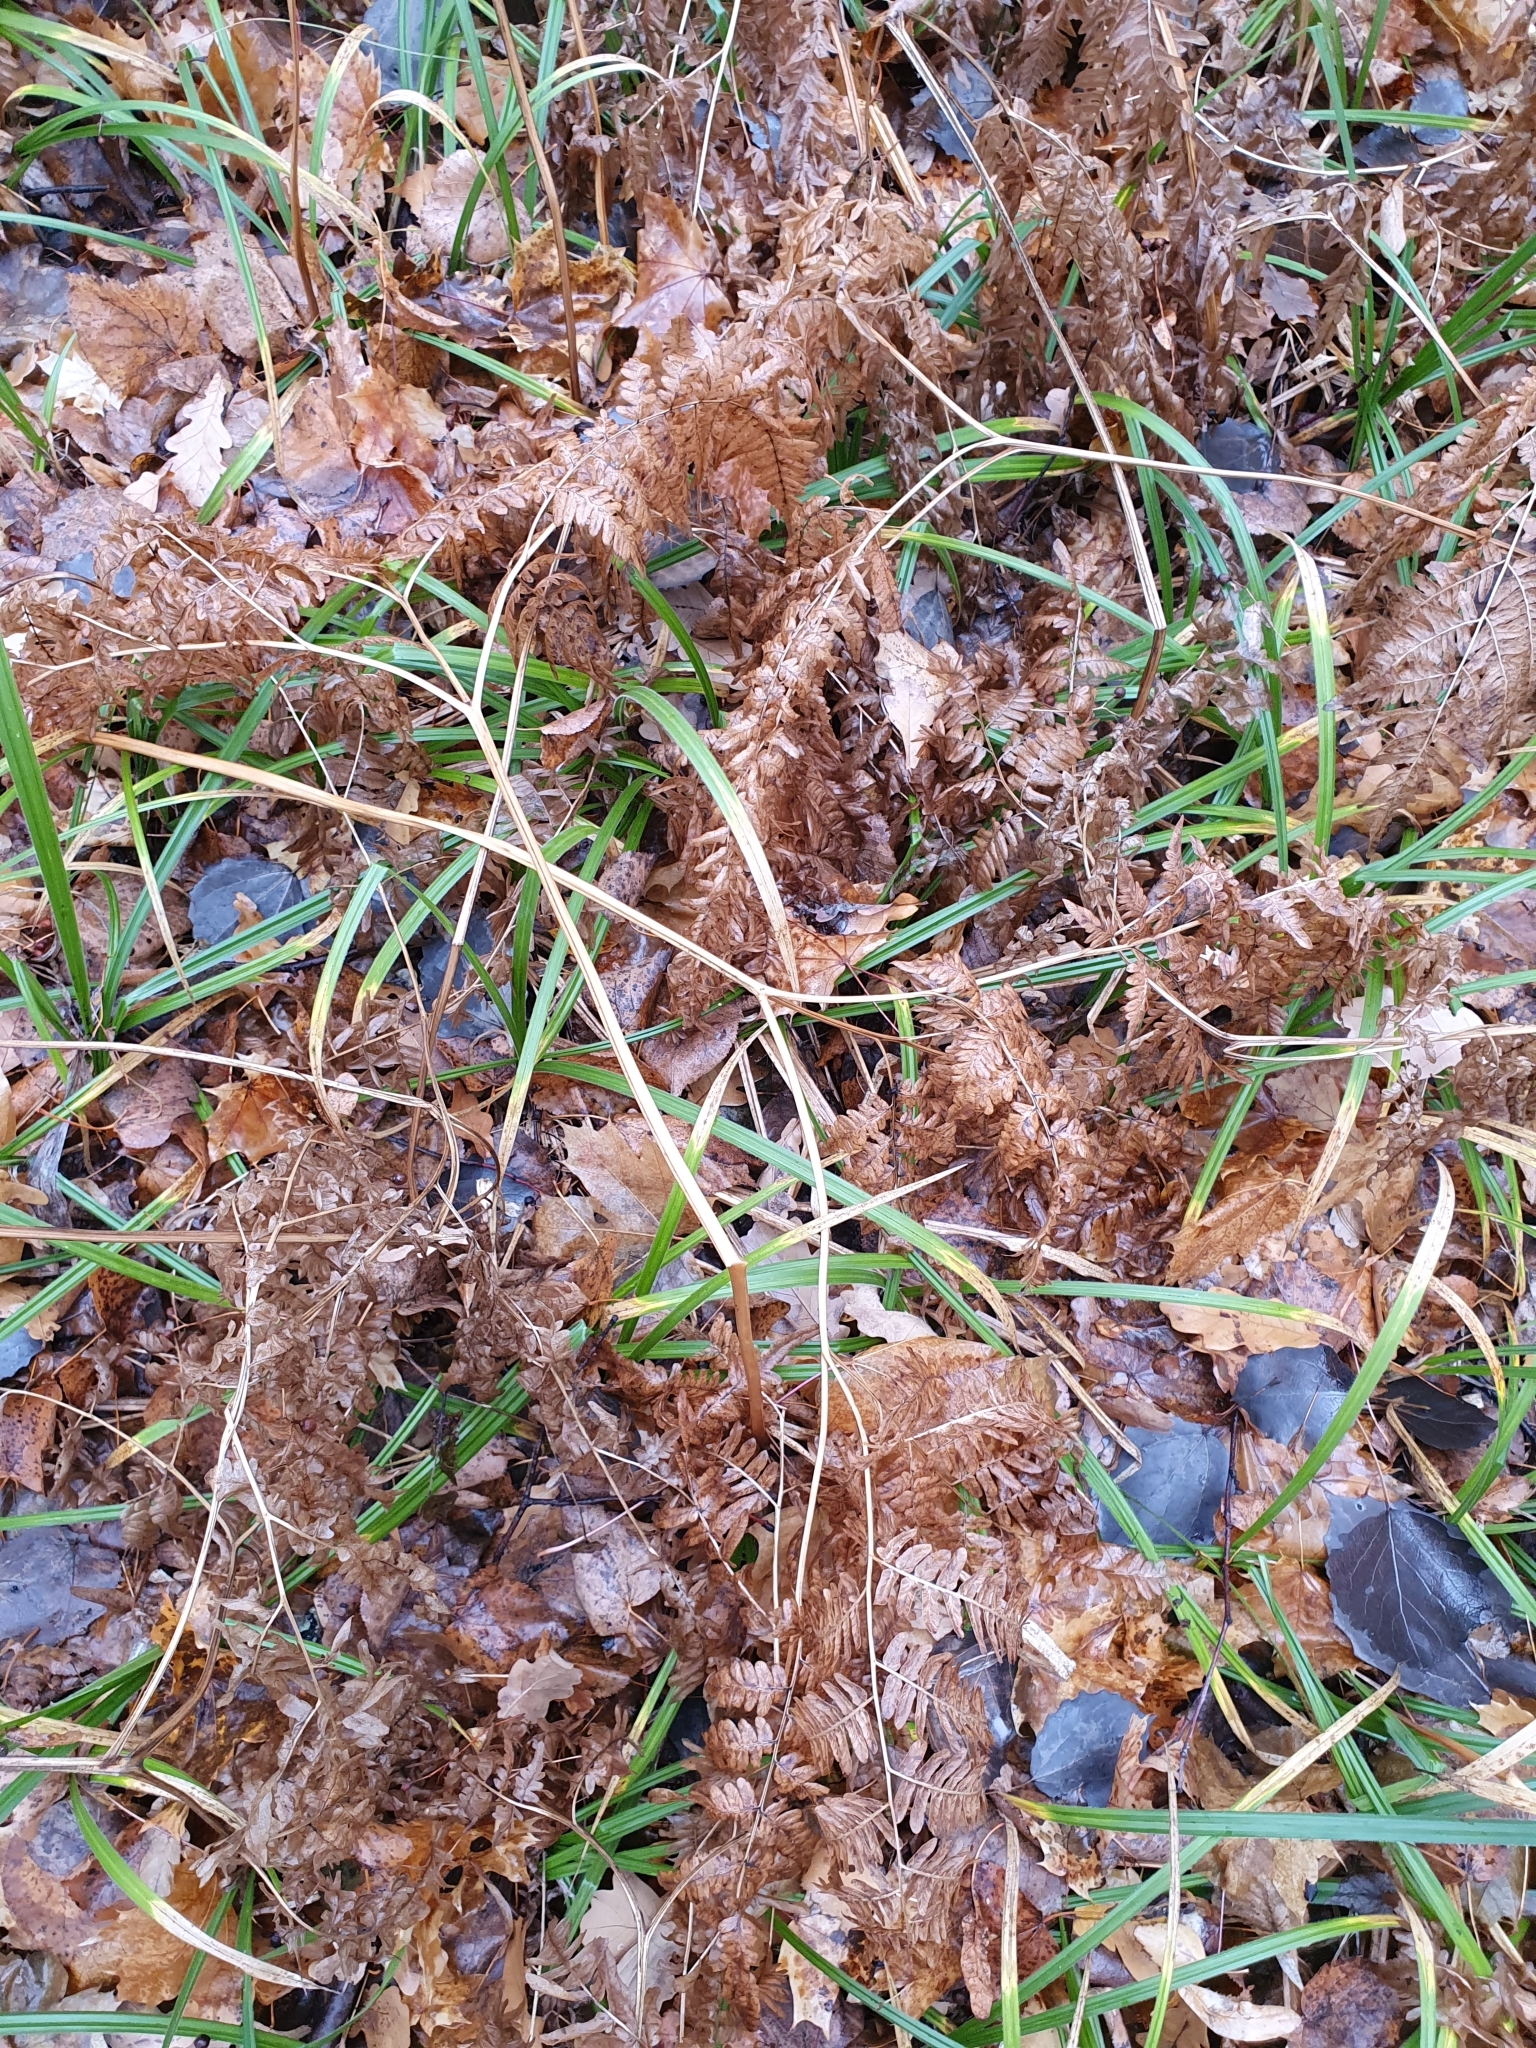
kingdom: Plantae
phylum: Tracheophyta
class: Polypodiopsida
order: Polypodiales
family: Dennstaedtiaceae
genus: Pteridium
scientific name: Pteridium aquilinum
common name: Bracken
